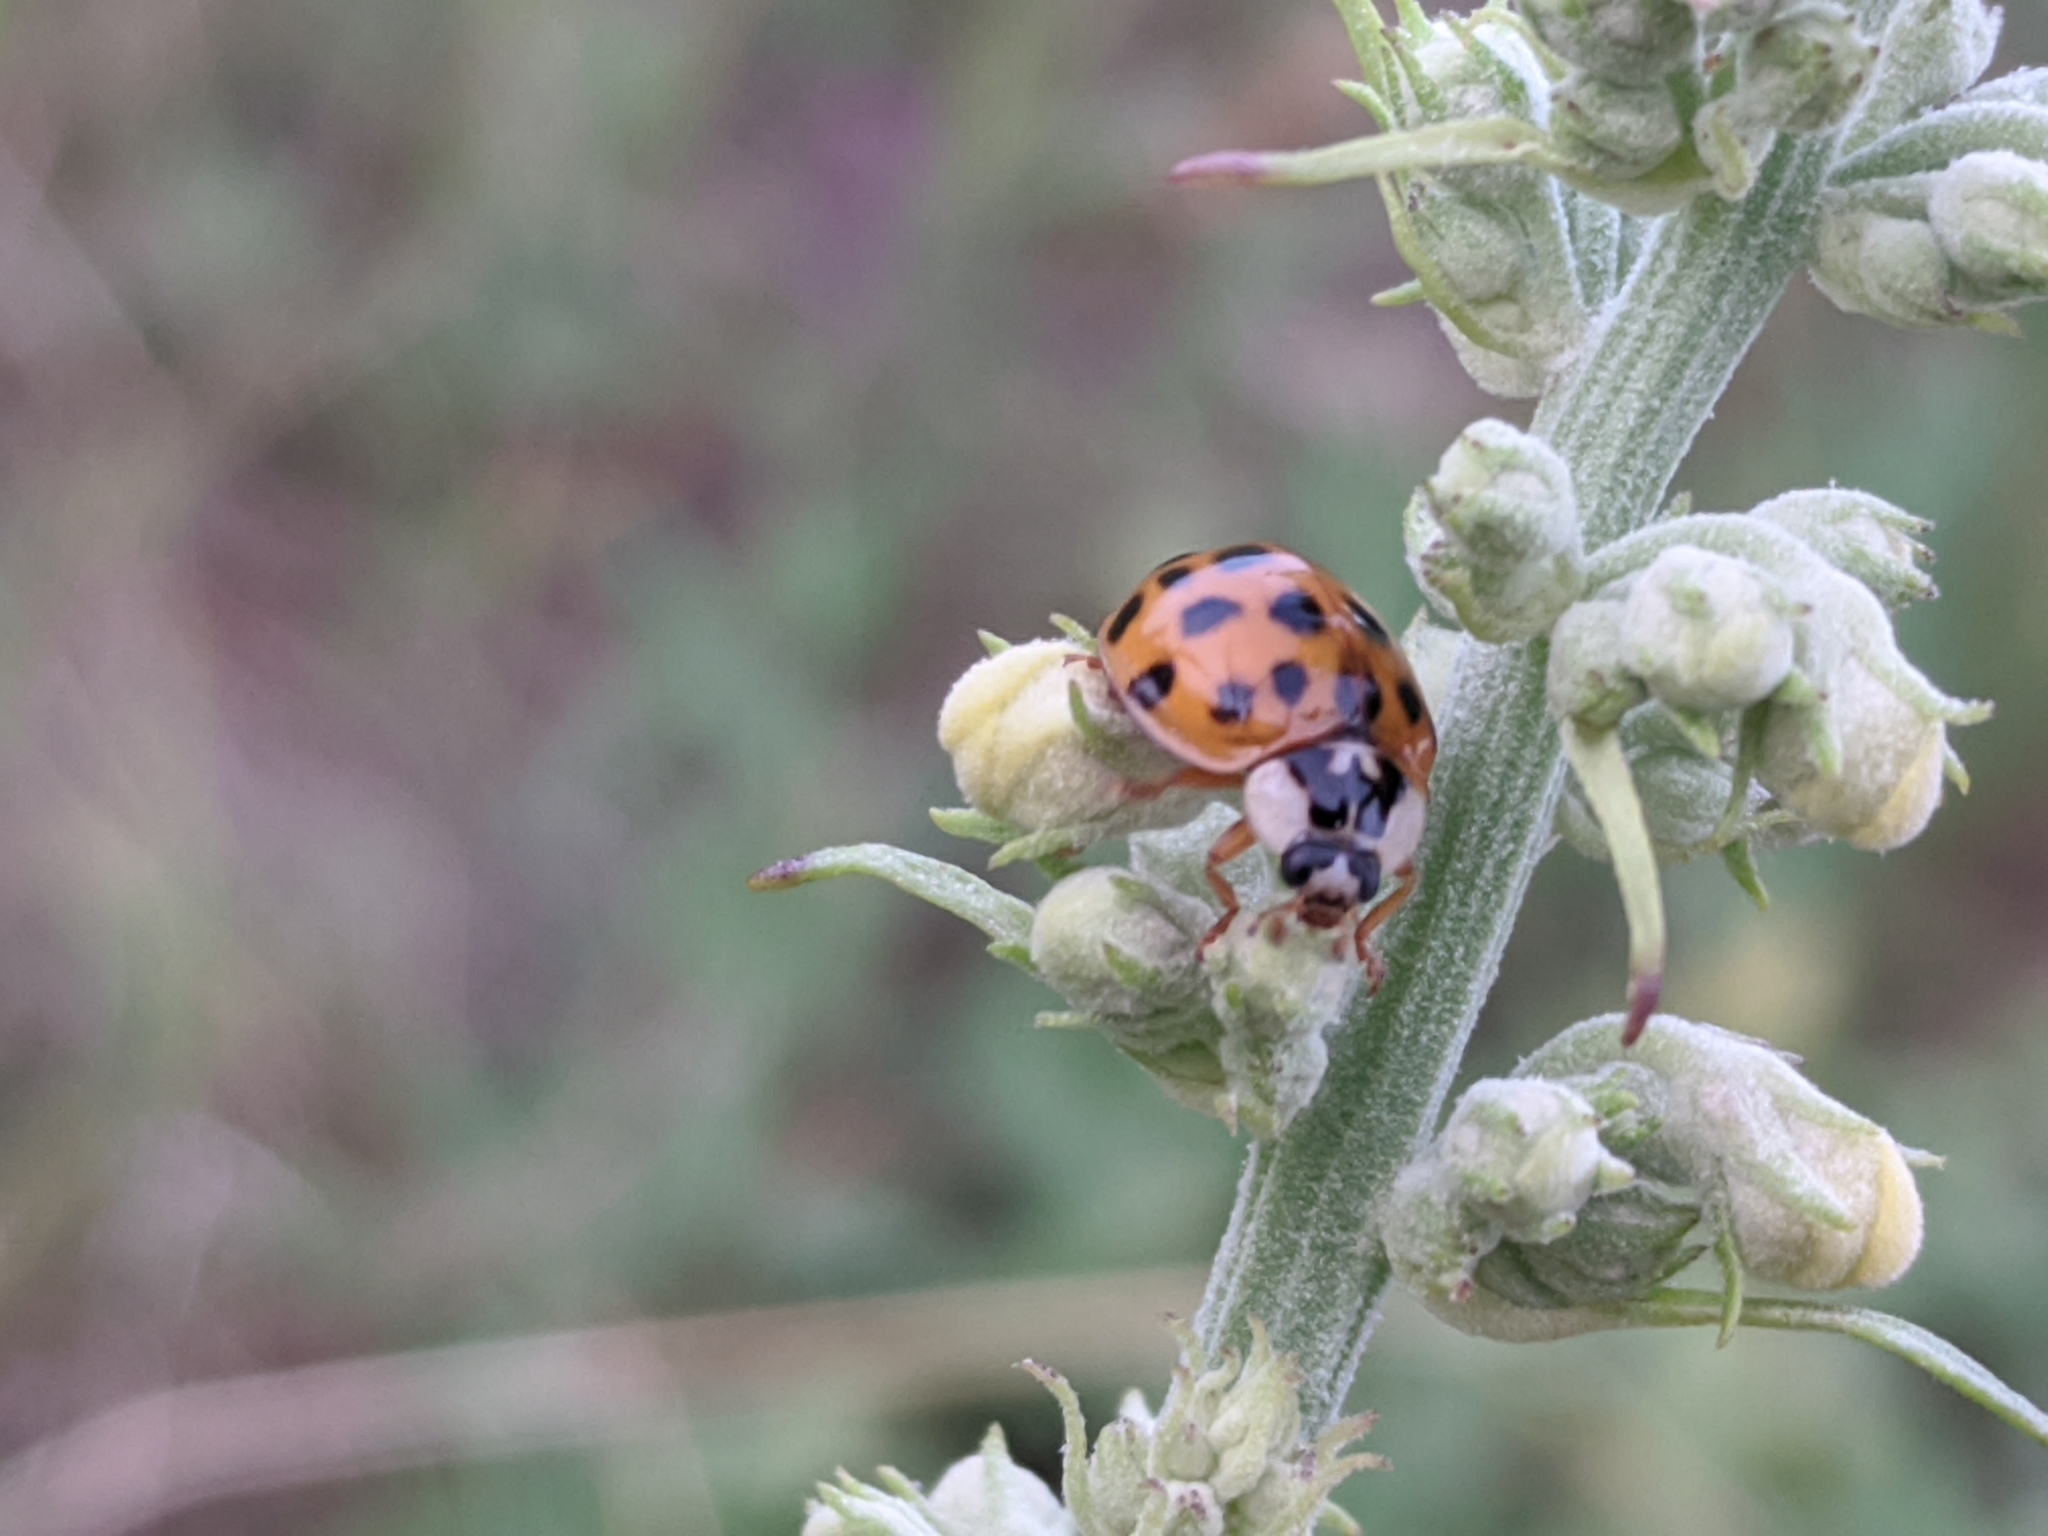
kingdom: Animalia
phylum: Arthropoda
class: Insecta
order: Coleoptera
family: Coccinellidae
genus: Harmonia
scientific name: Harmonia axyridis
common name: Harlequin ladybird
